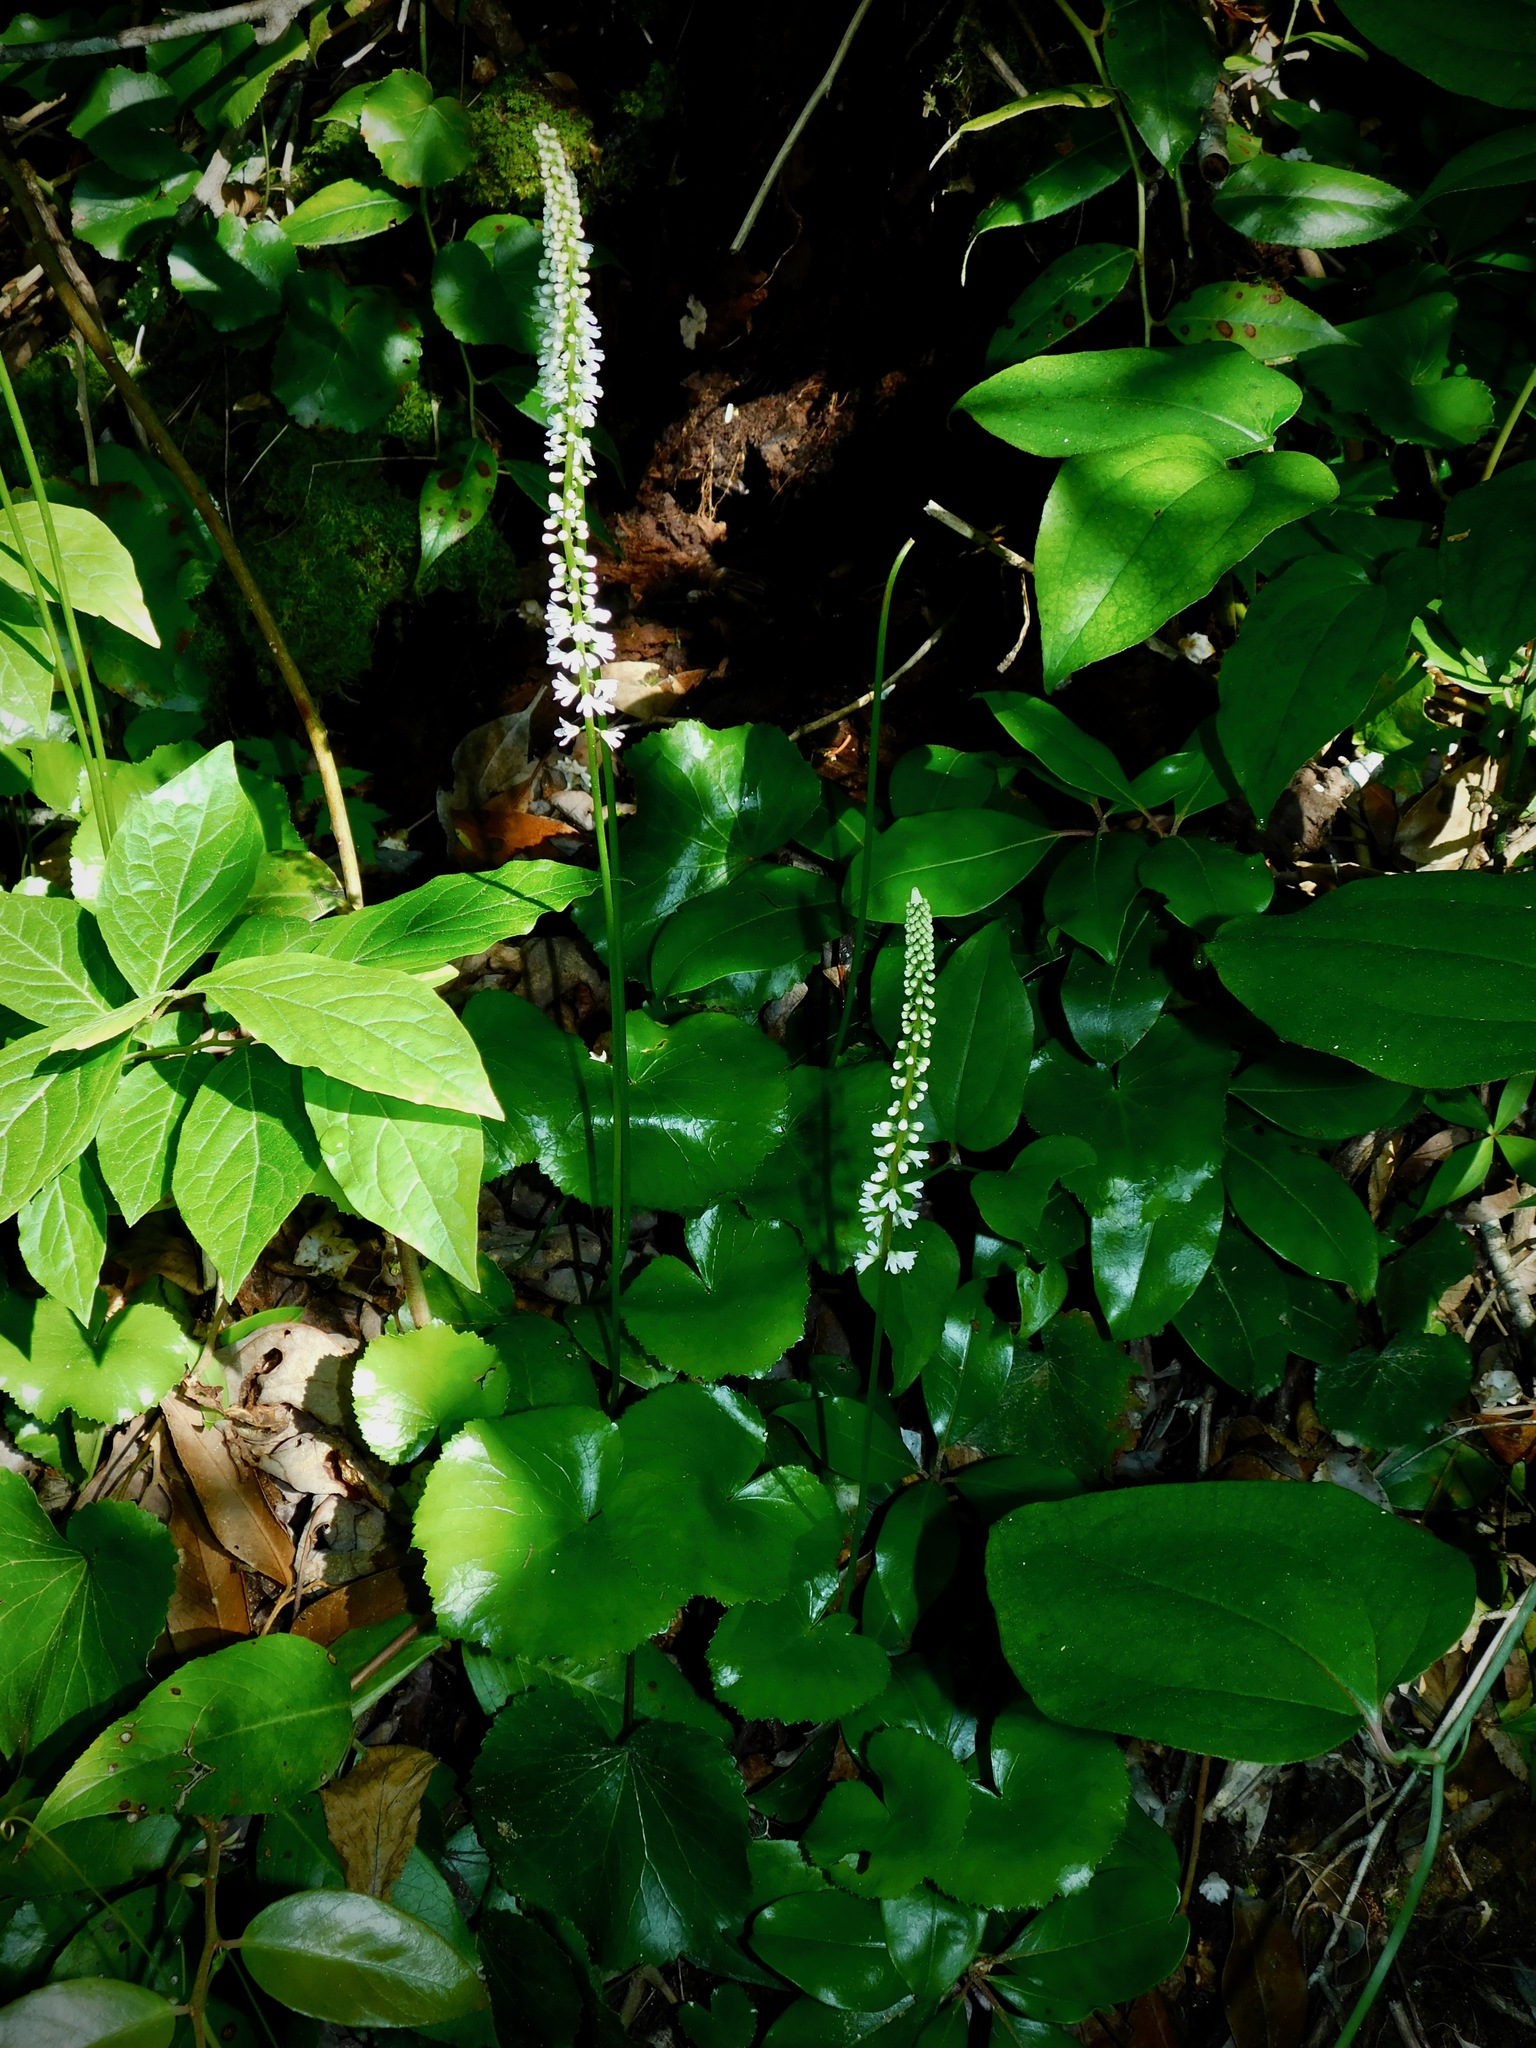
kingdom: Plantae
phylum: Tracheophyta
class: Magnoliopsida
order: Ericales
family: Diapensiaceae
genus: Galax
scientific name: Galax urceolata
